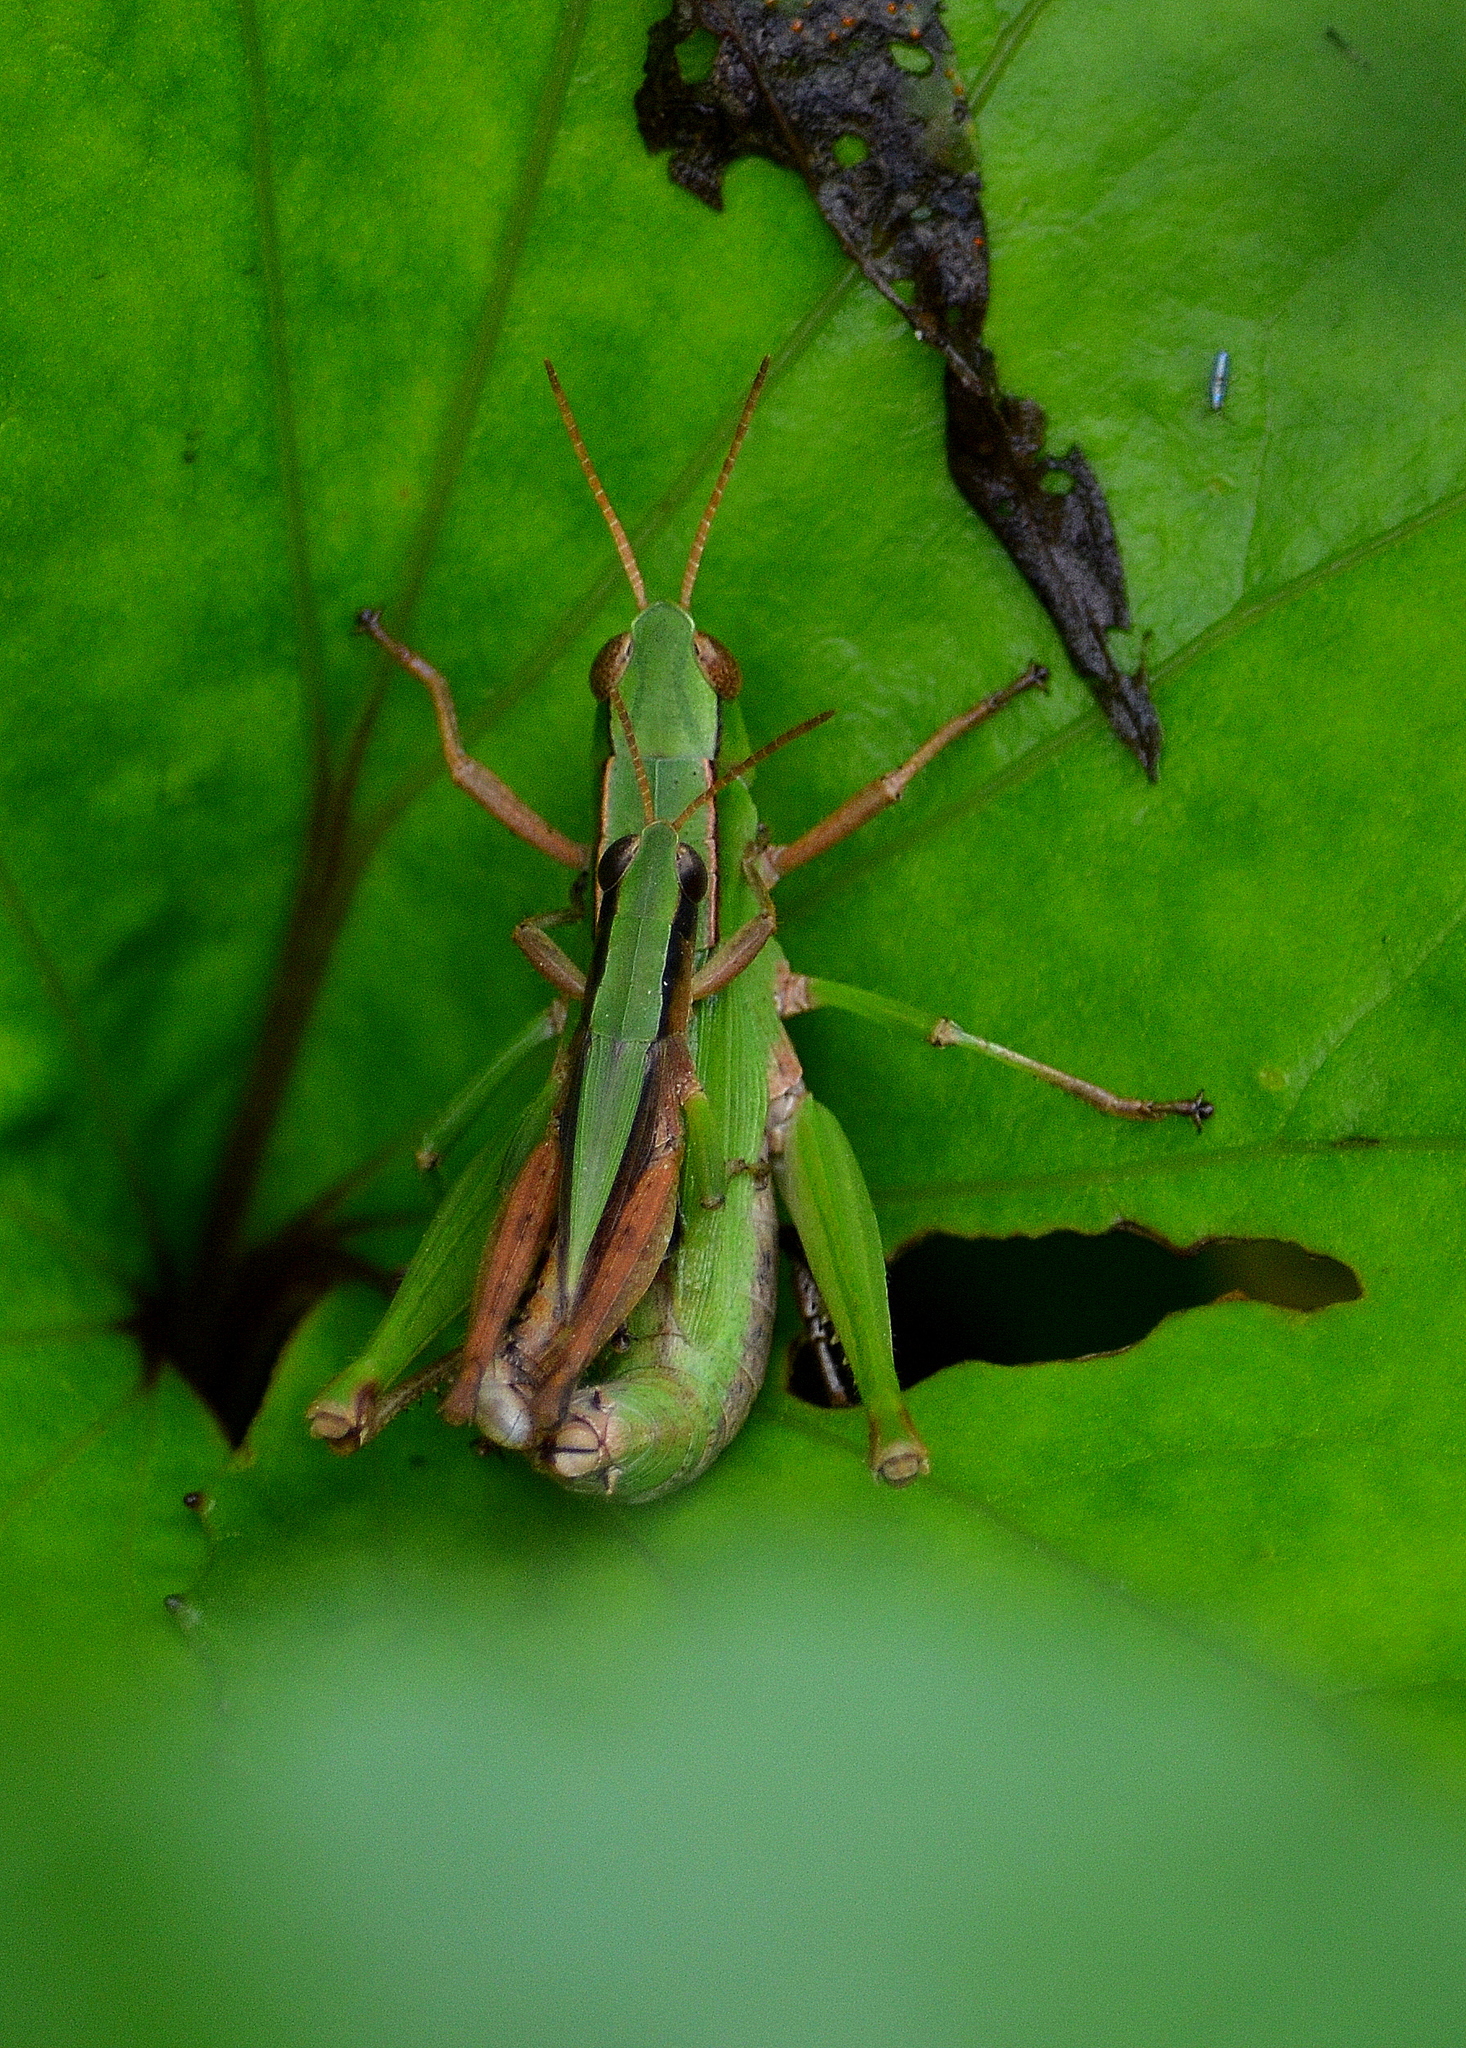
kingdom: Animalia
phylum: Arthropoda
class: Insecta
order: Orthoptera
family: Acrididae
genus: Dichromorpha
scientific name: Dichromorpha viridis
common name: Short-winged green grasshopper
